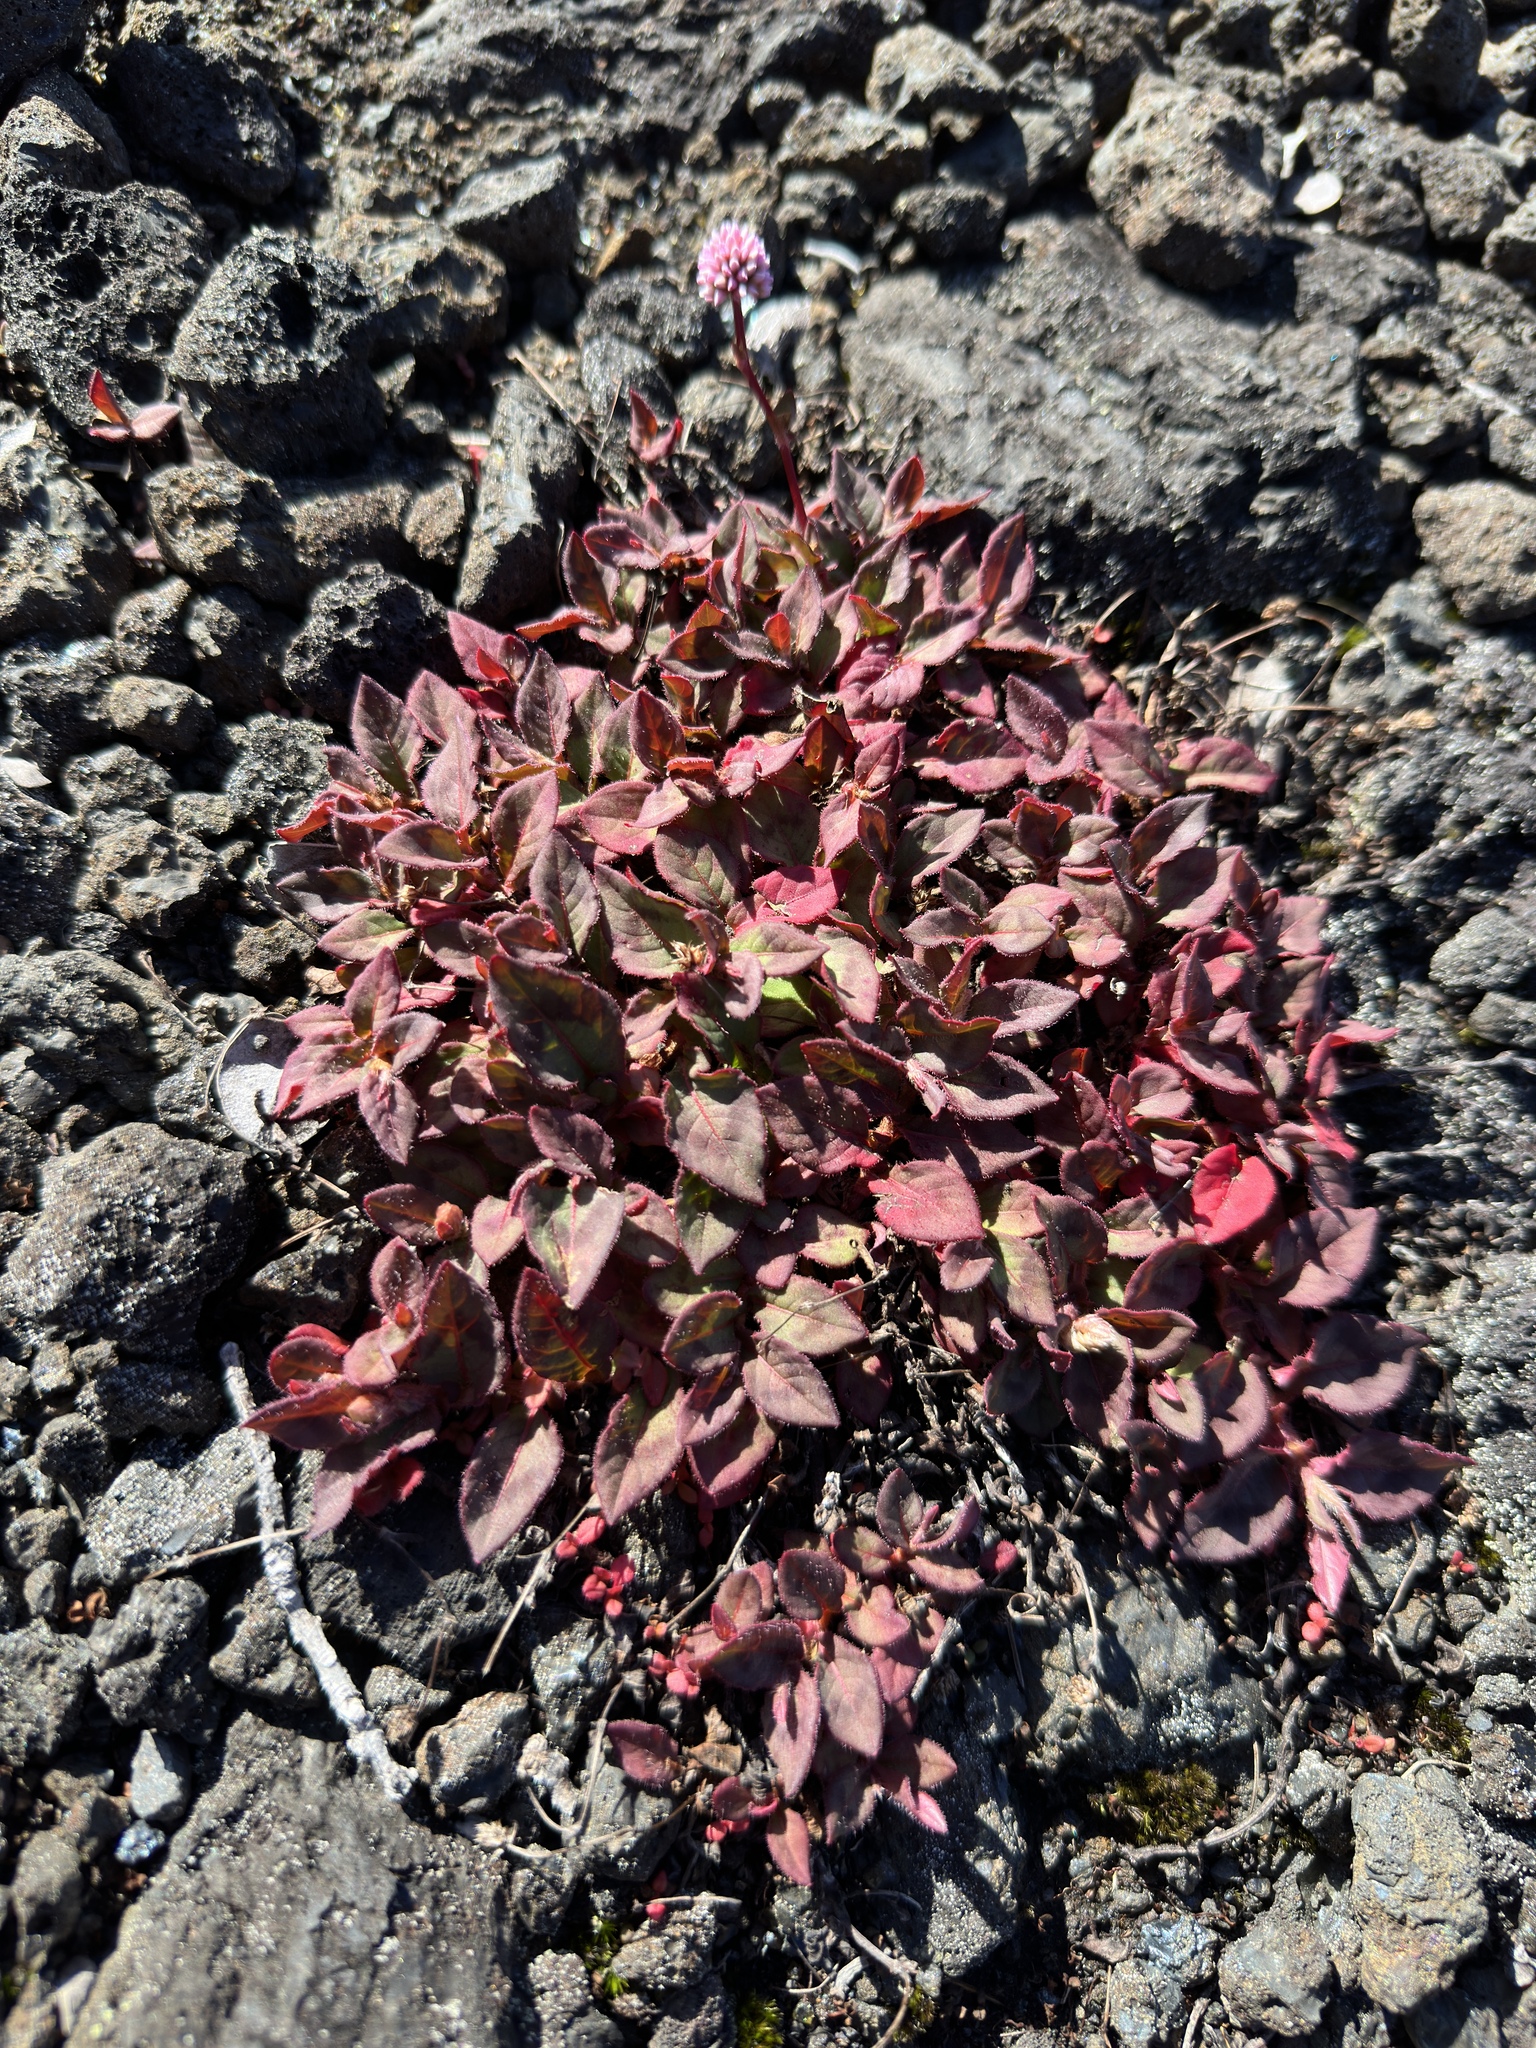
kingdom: Plantae
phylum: Tracheophyta
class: Magnoliopsida
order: Caryophyllales
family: Polygonaceae
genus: Persicaria
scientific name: Persicaria capitata
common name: Pinkhead smartweed
